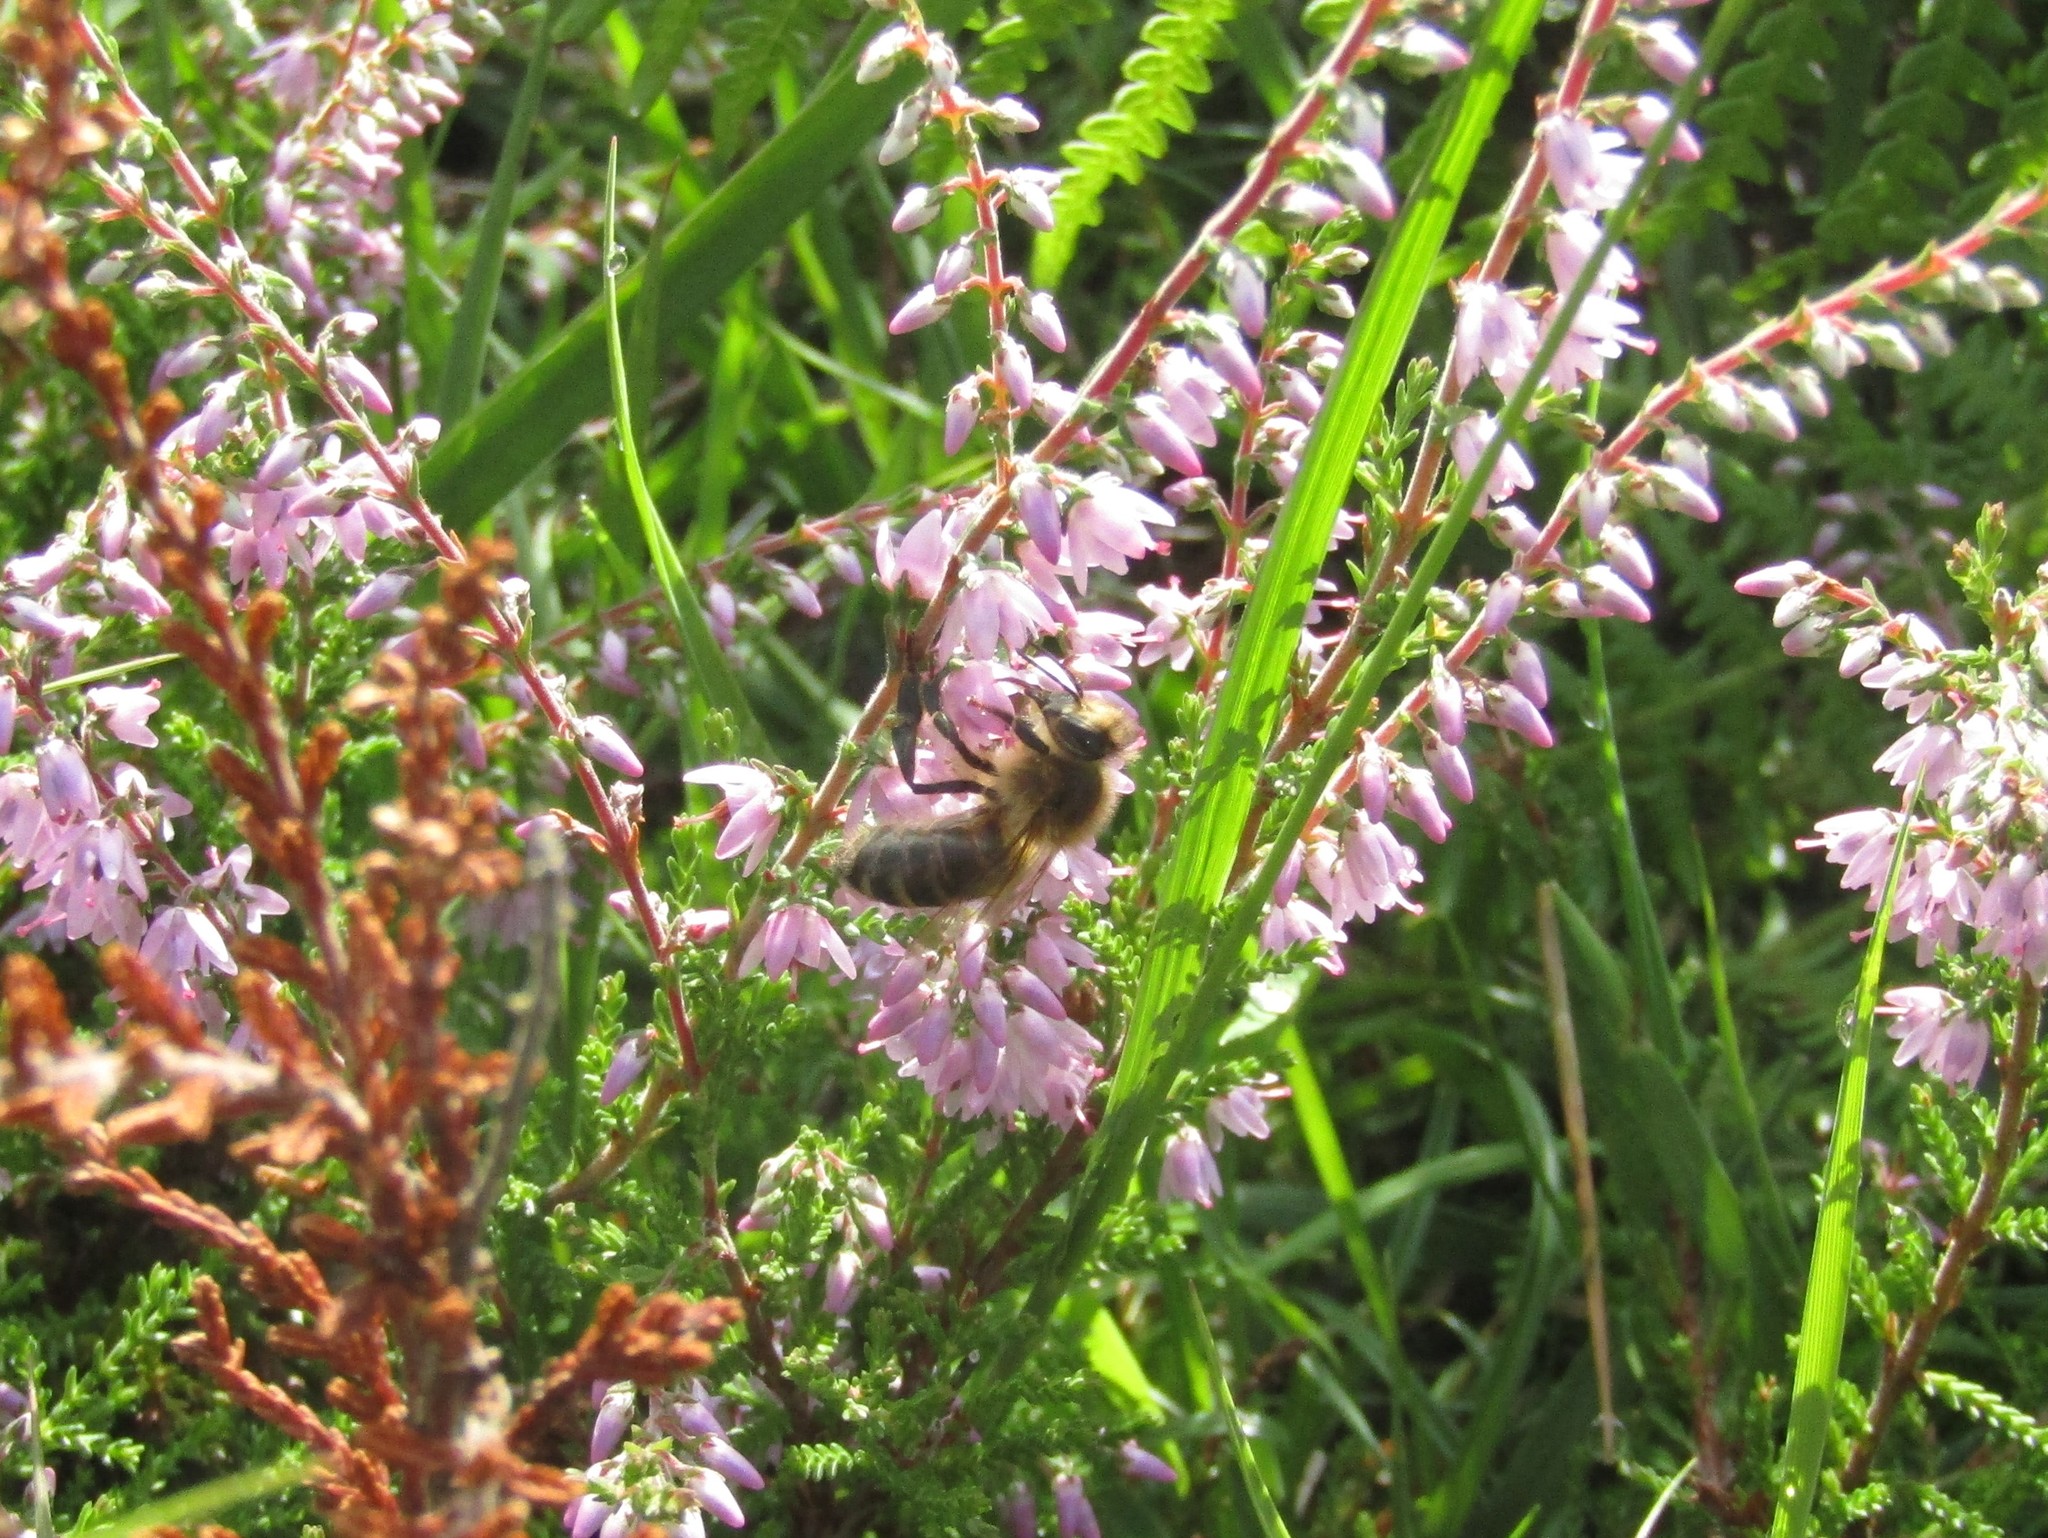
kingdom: Animalia
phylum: Arthropoda
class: Insecta
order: Hymenoptera
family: Apidae
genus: Apis
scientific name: Apis mellifera
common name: Honey bee
